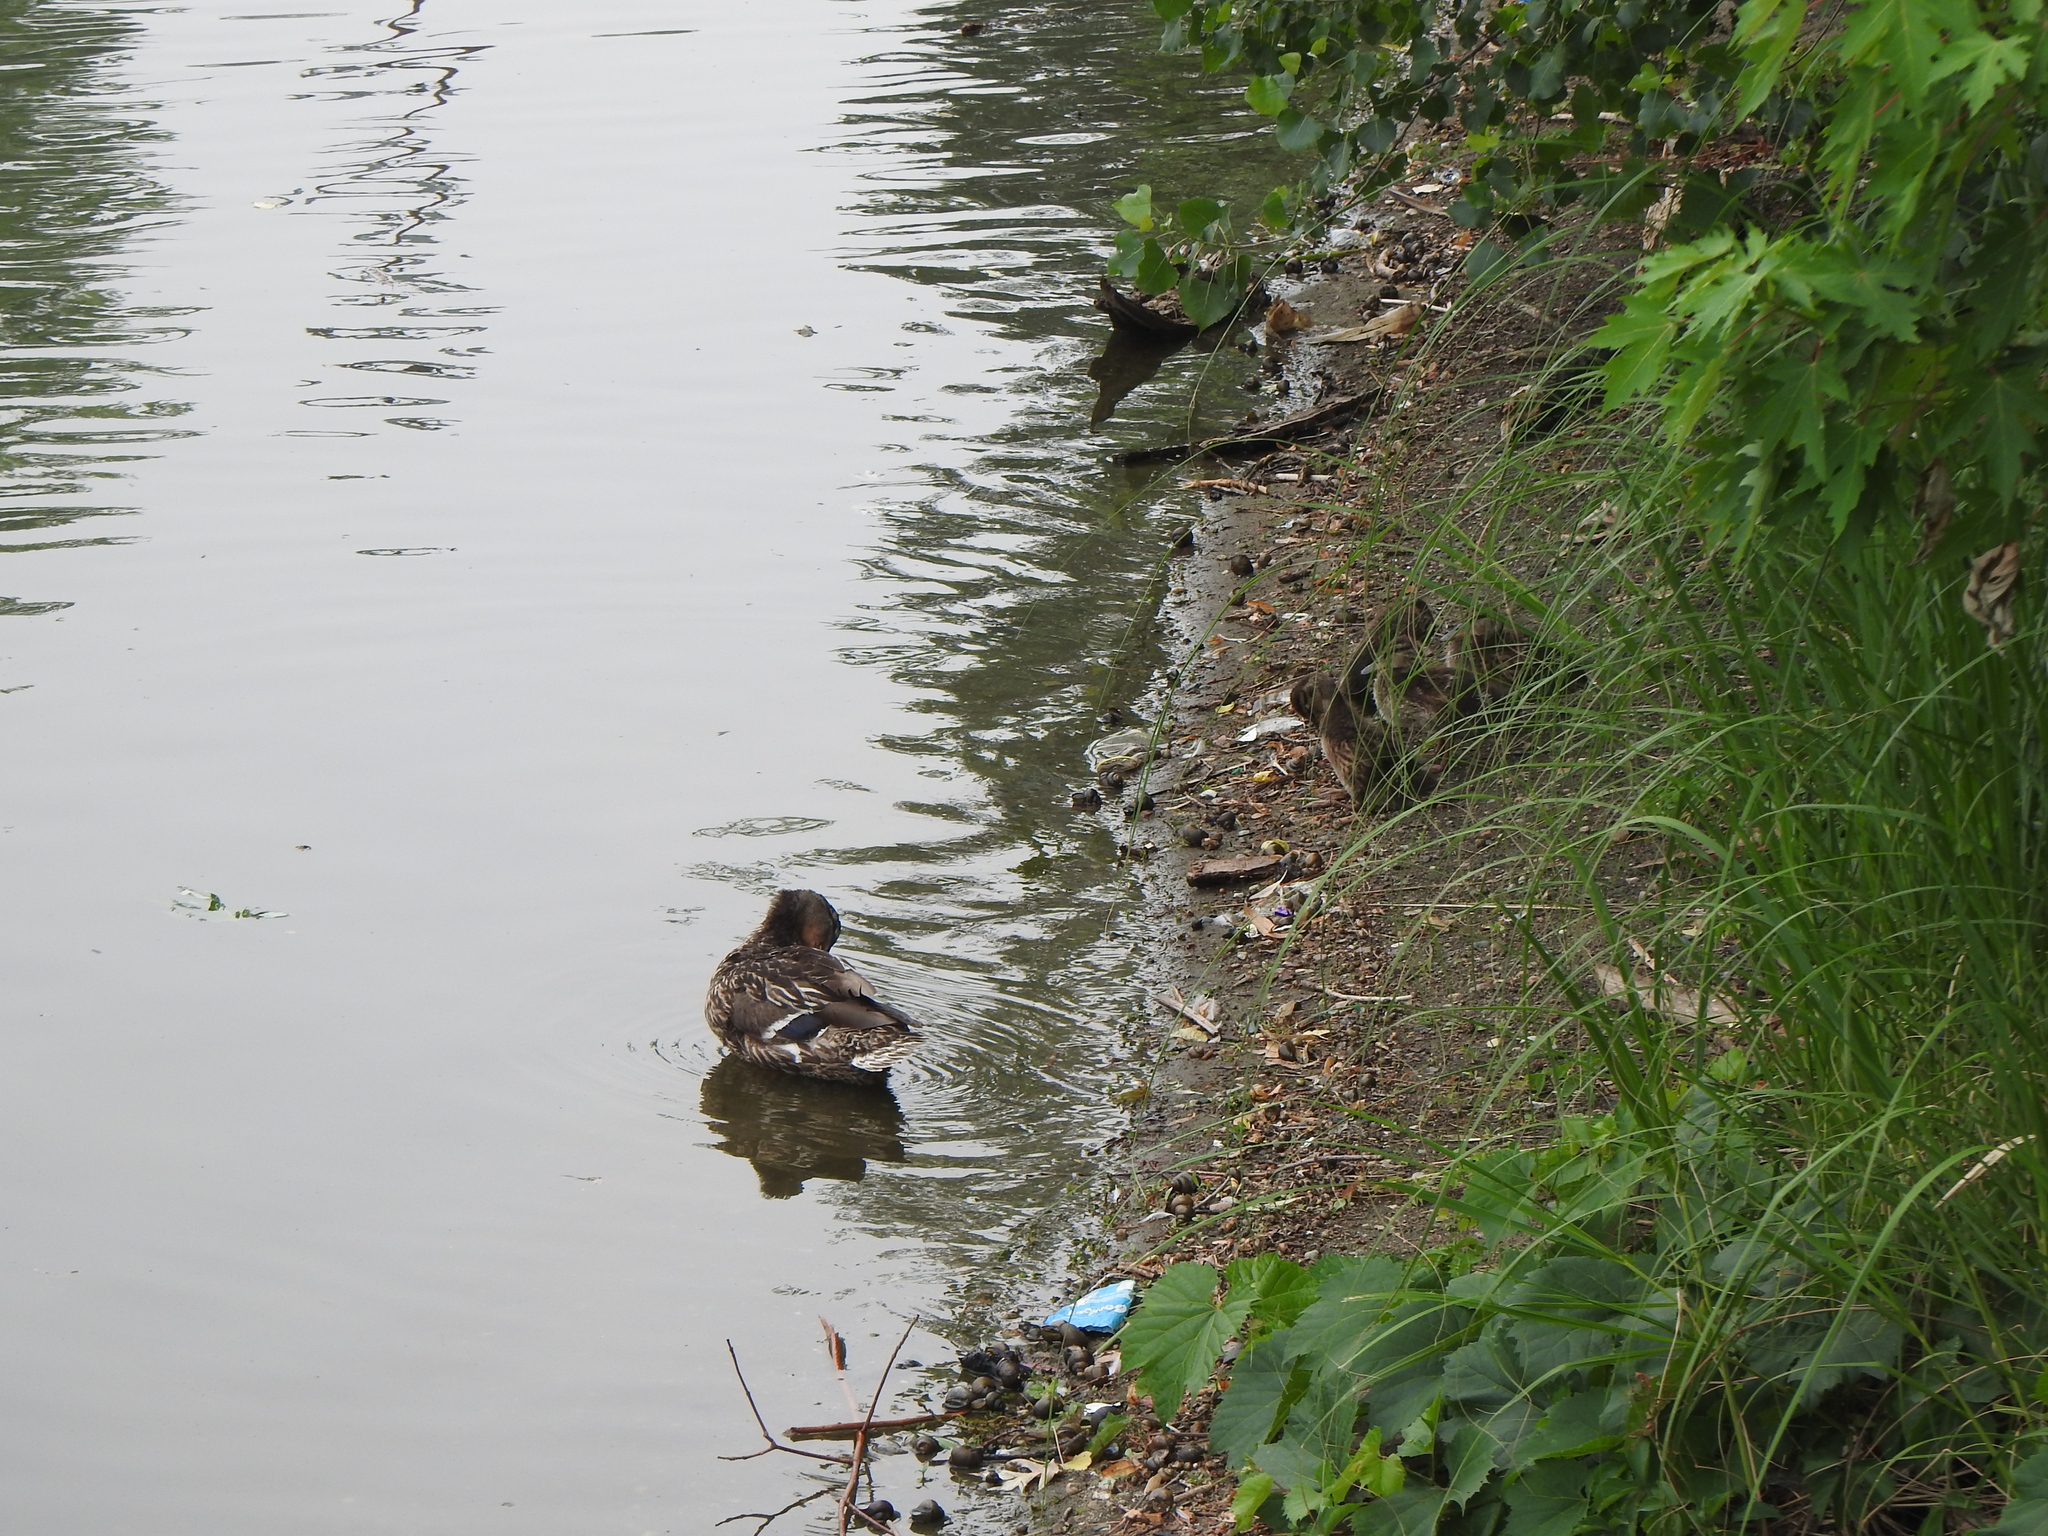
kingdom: Animalia
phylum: Chordata
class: Aves
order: Anseriformes
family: Anatidae
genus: Anas
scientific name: Anas platyrhynchos
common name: Mallard
